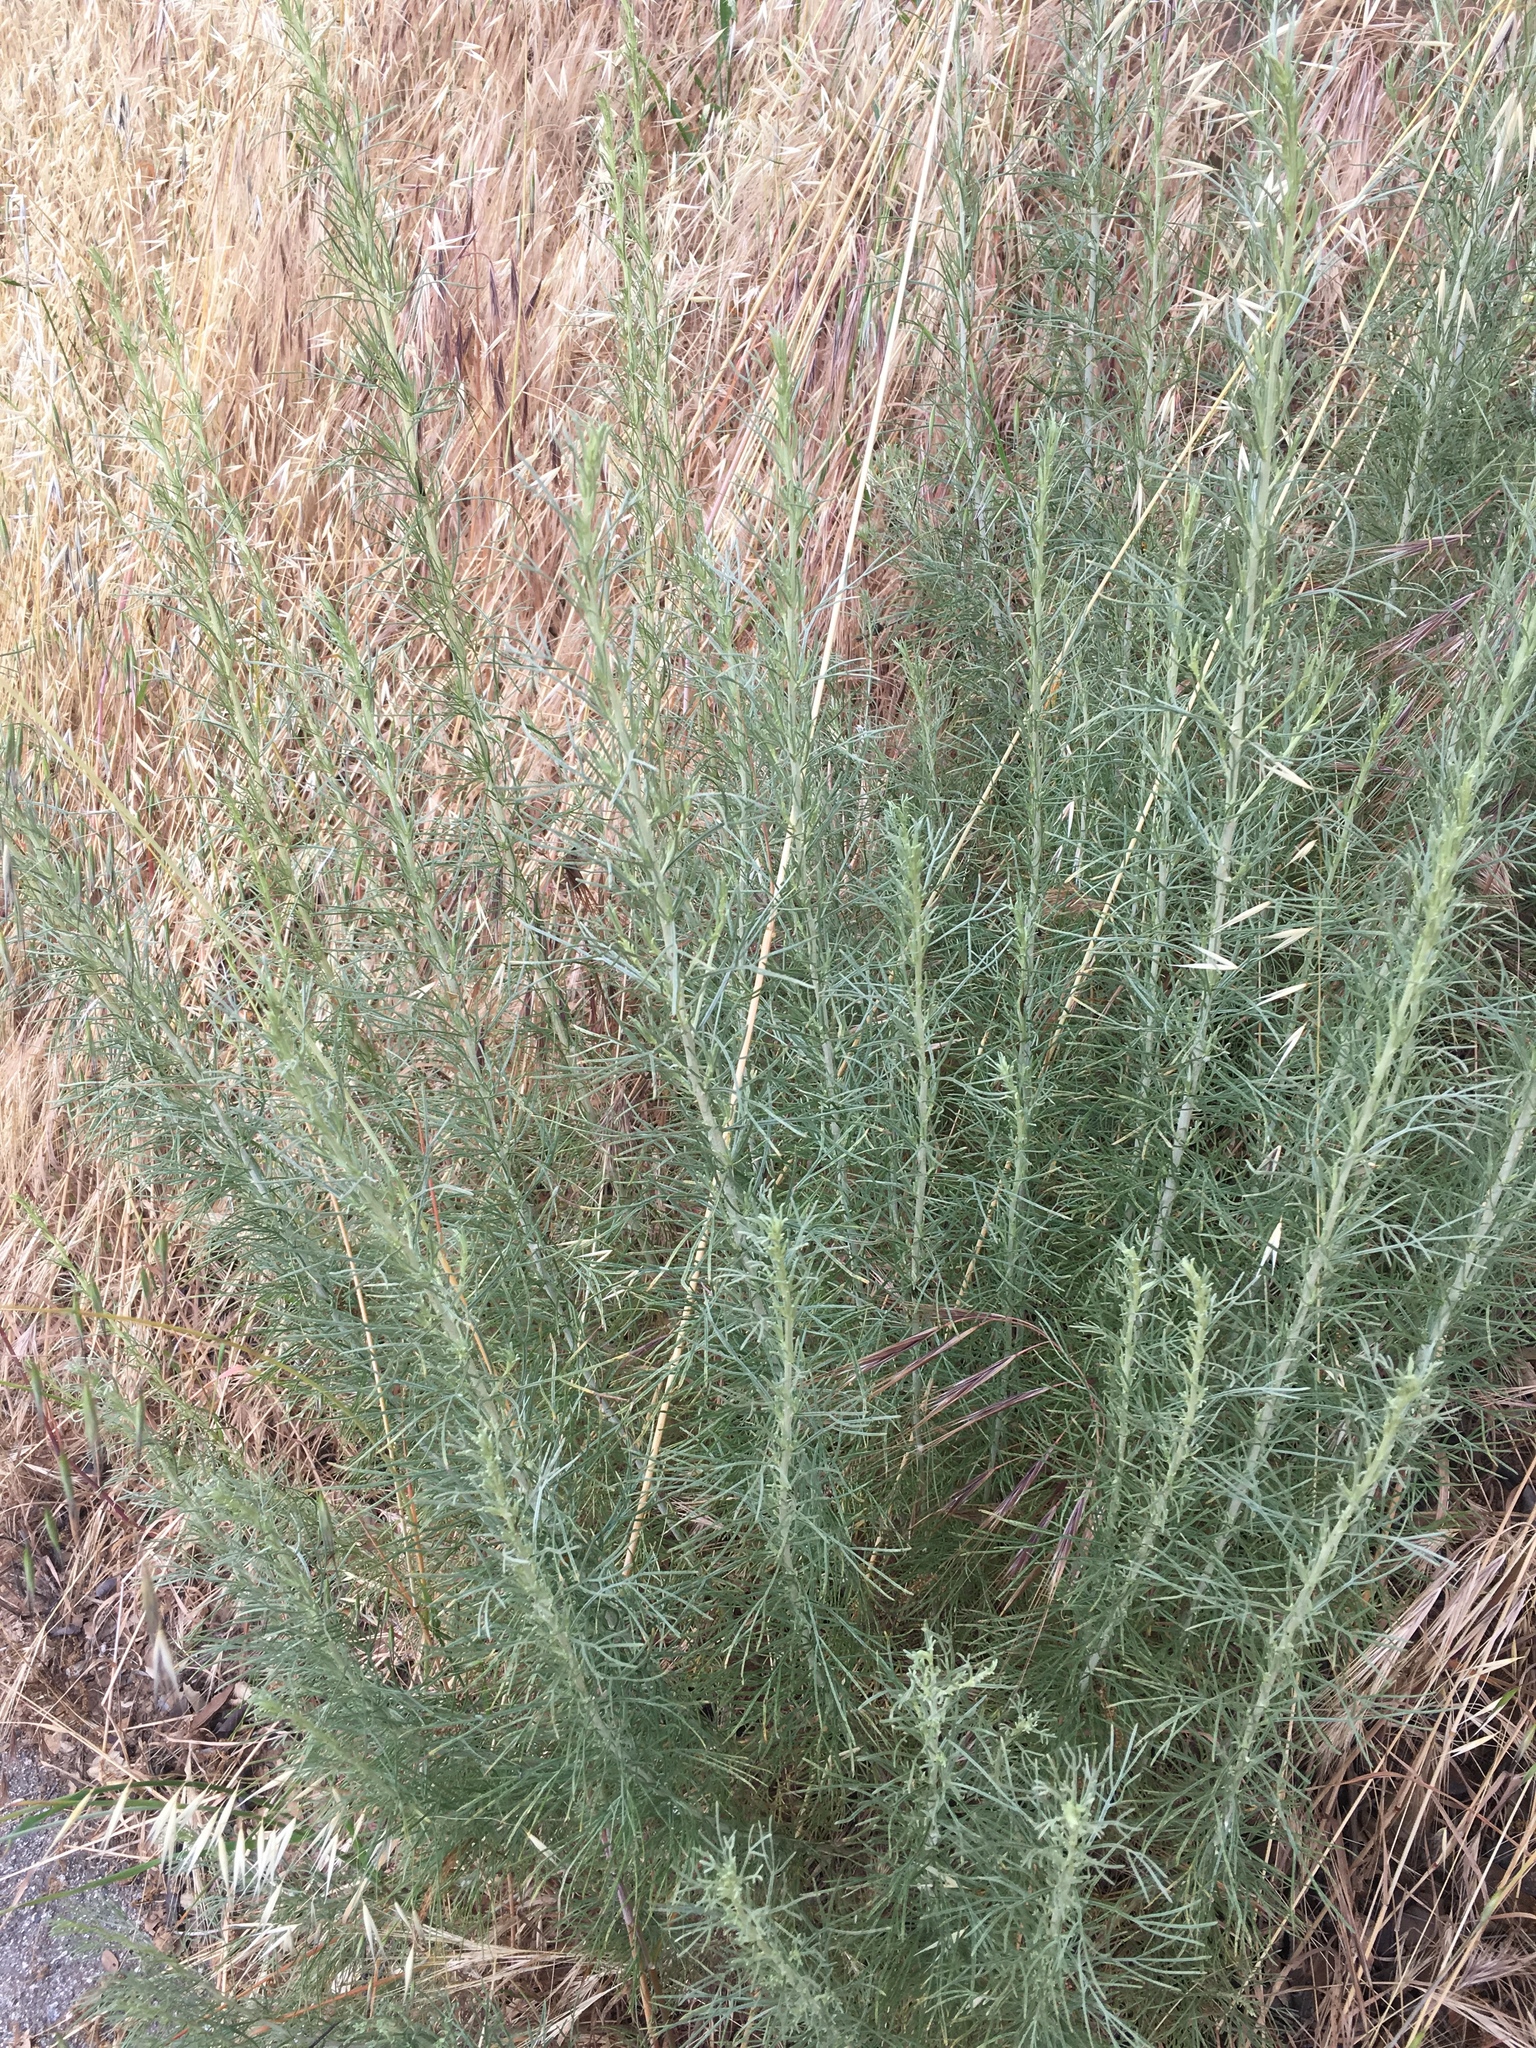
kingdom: Plantae
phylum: Tracheophyta
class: Magnoliopsida
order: Asterales
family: Asteraceae
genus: Artemisia
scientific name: Artemisia californica
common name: California sagebrush
